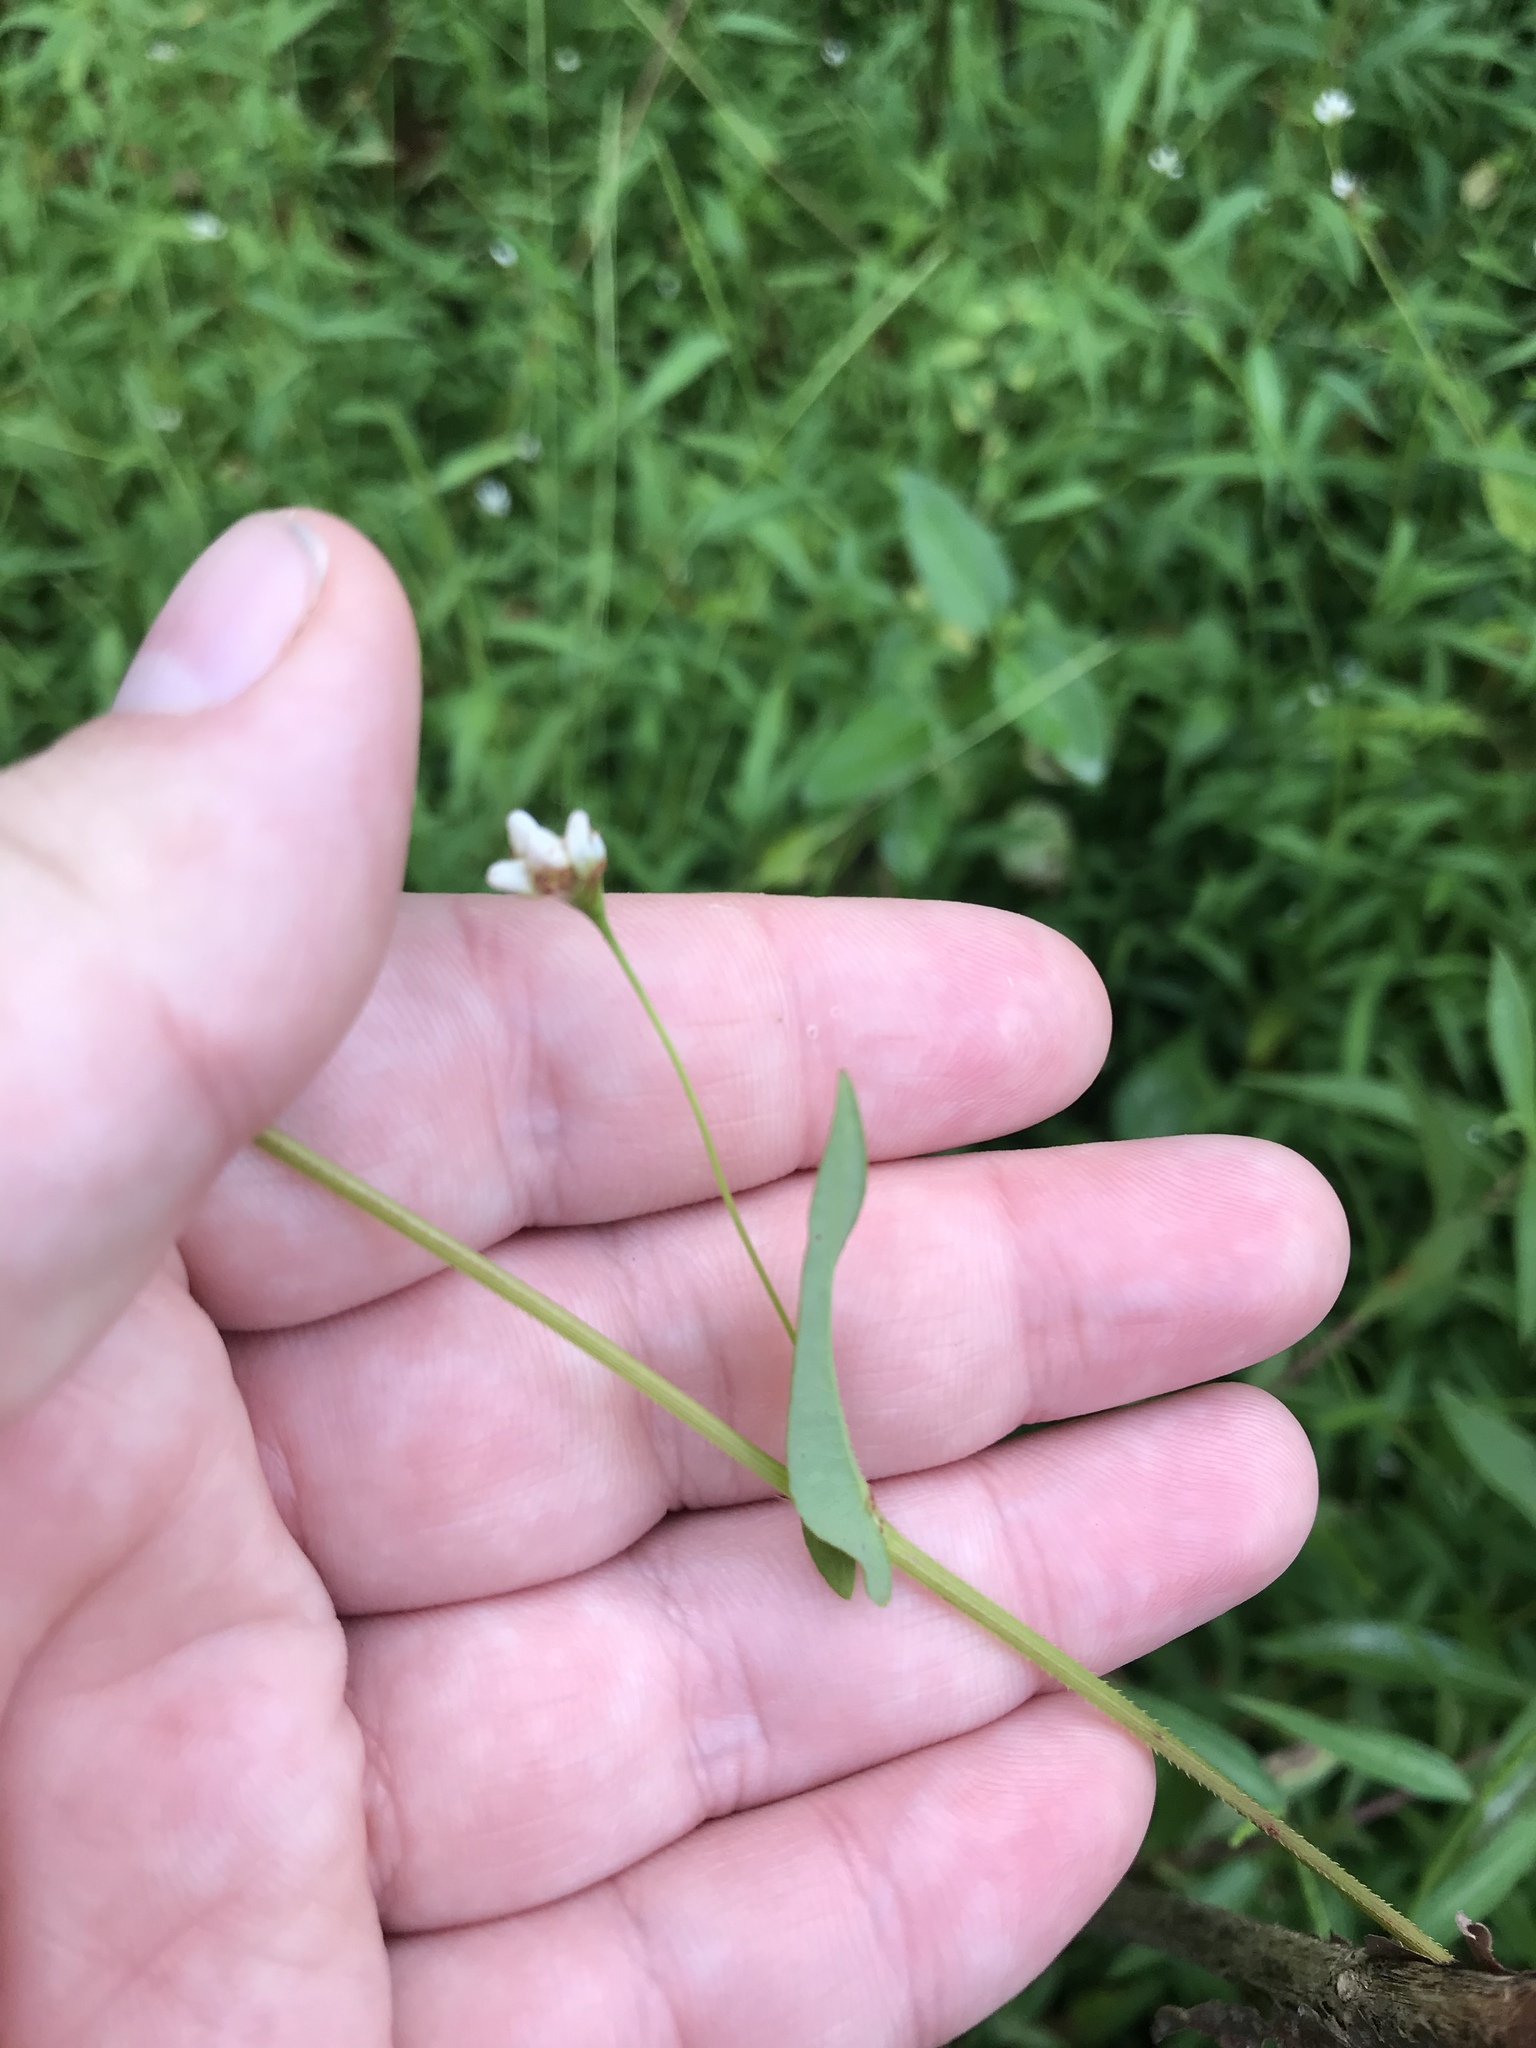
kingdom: Plantae
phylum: Tracheophyta
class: Magnoliopsida
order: Caryophyllales
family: Polygonaceae
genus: Persicaria
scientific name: Persicaria sagittata
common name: American tearthumb
